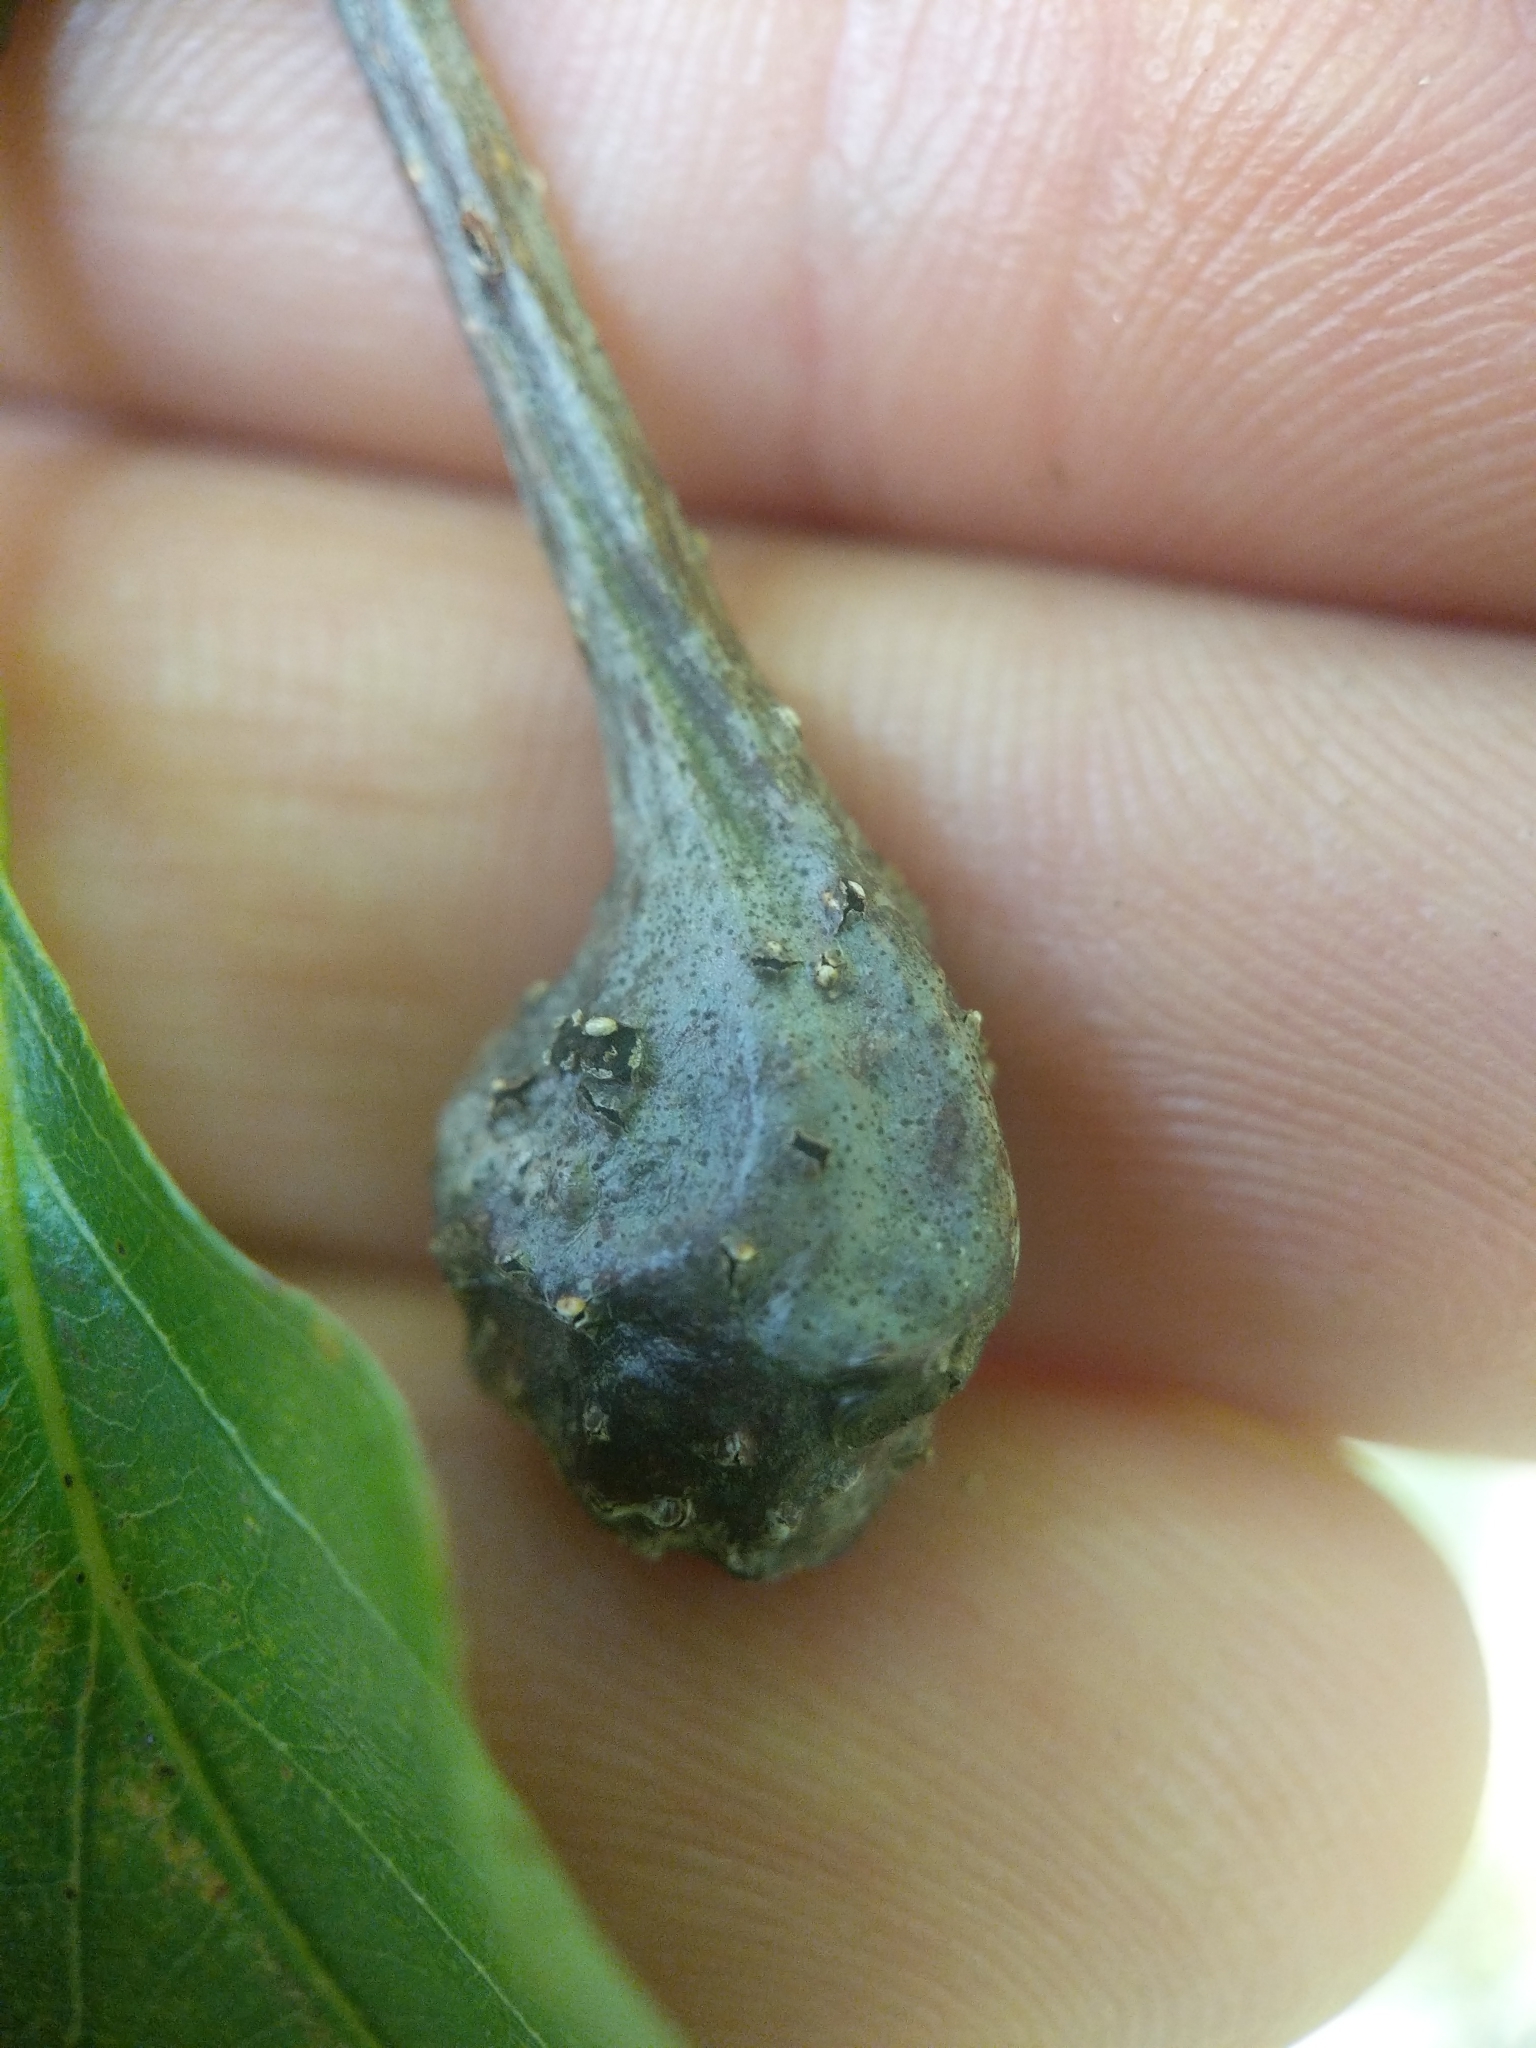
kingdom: Animalia
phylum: Arthropoda
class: Insecta
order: Hymenoptera
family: Cynipidae
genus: Callirhytis
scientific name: Callirhytis clavula
